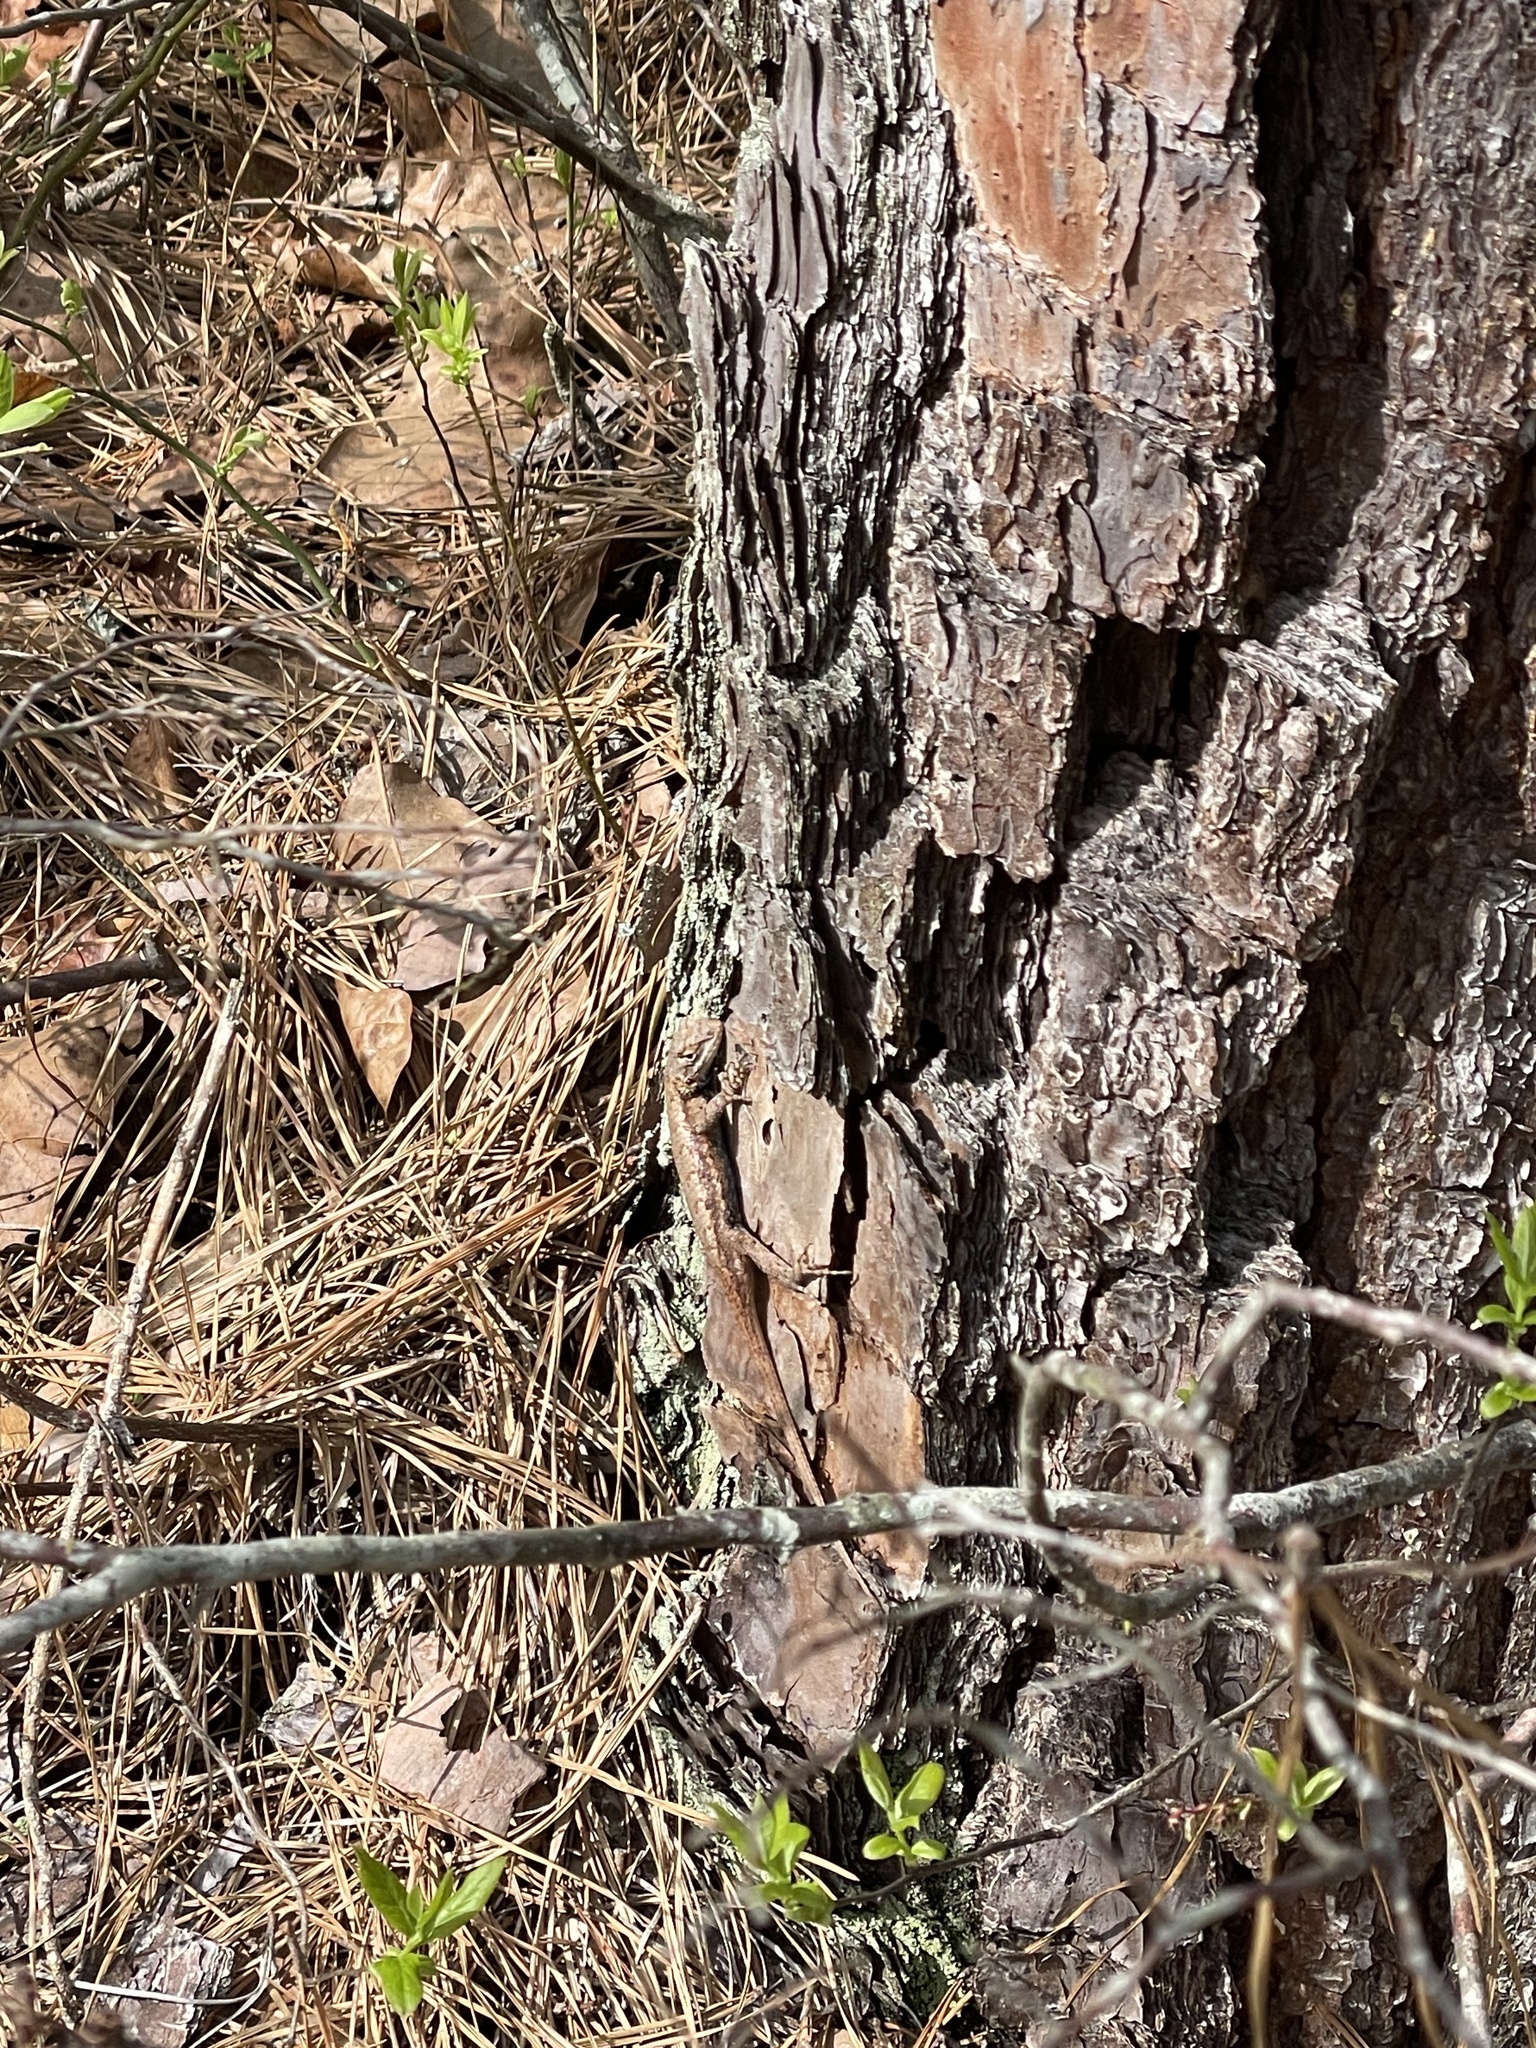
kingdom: Animalia
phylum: Chordata
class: Squamata
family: Phrynosomatidae
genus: Sceloporus
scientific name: Sceloporus undulatus
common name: Eastern fence lizard
